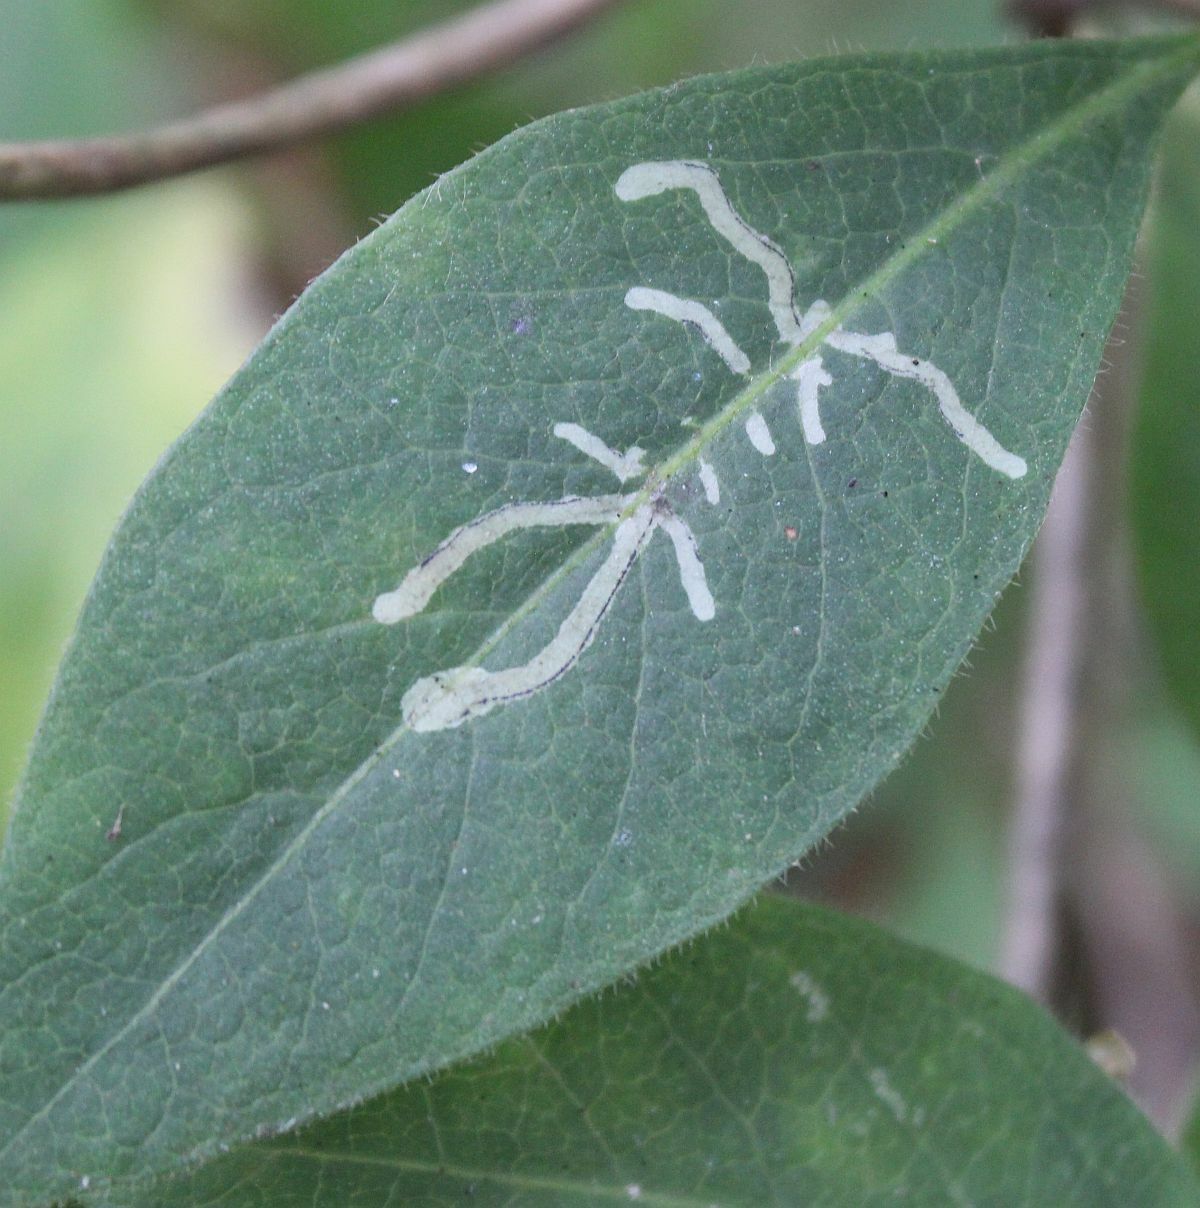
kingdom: Animalia
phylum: Arthropoda
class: Insecta
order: Diptera
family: Agromyzidae
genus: Phytomyza
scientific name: Phytomyza aprilina
